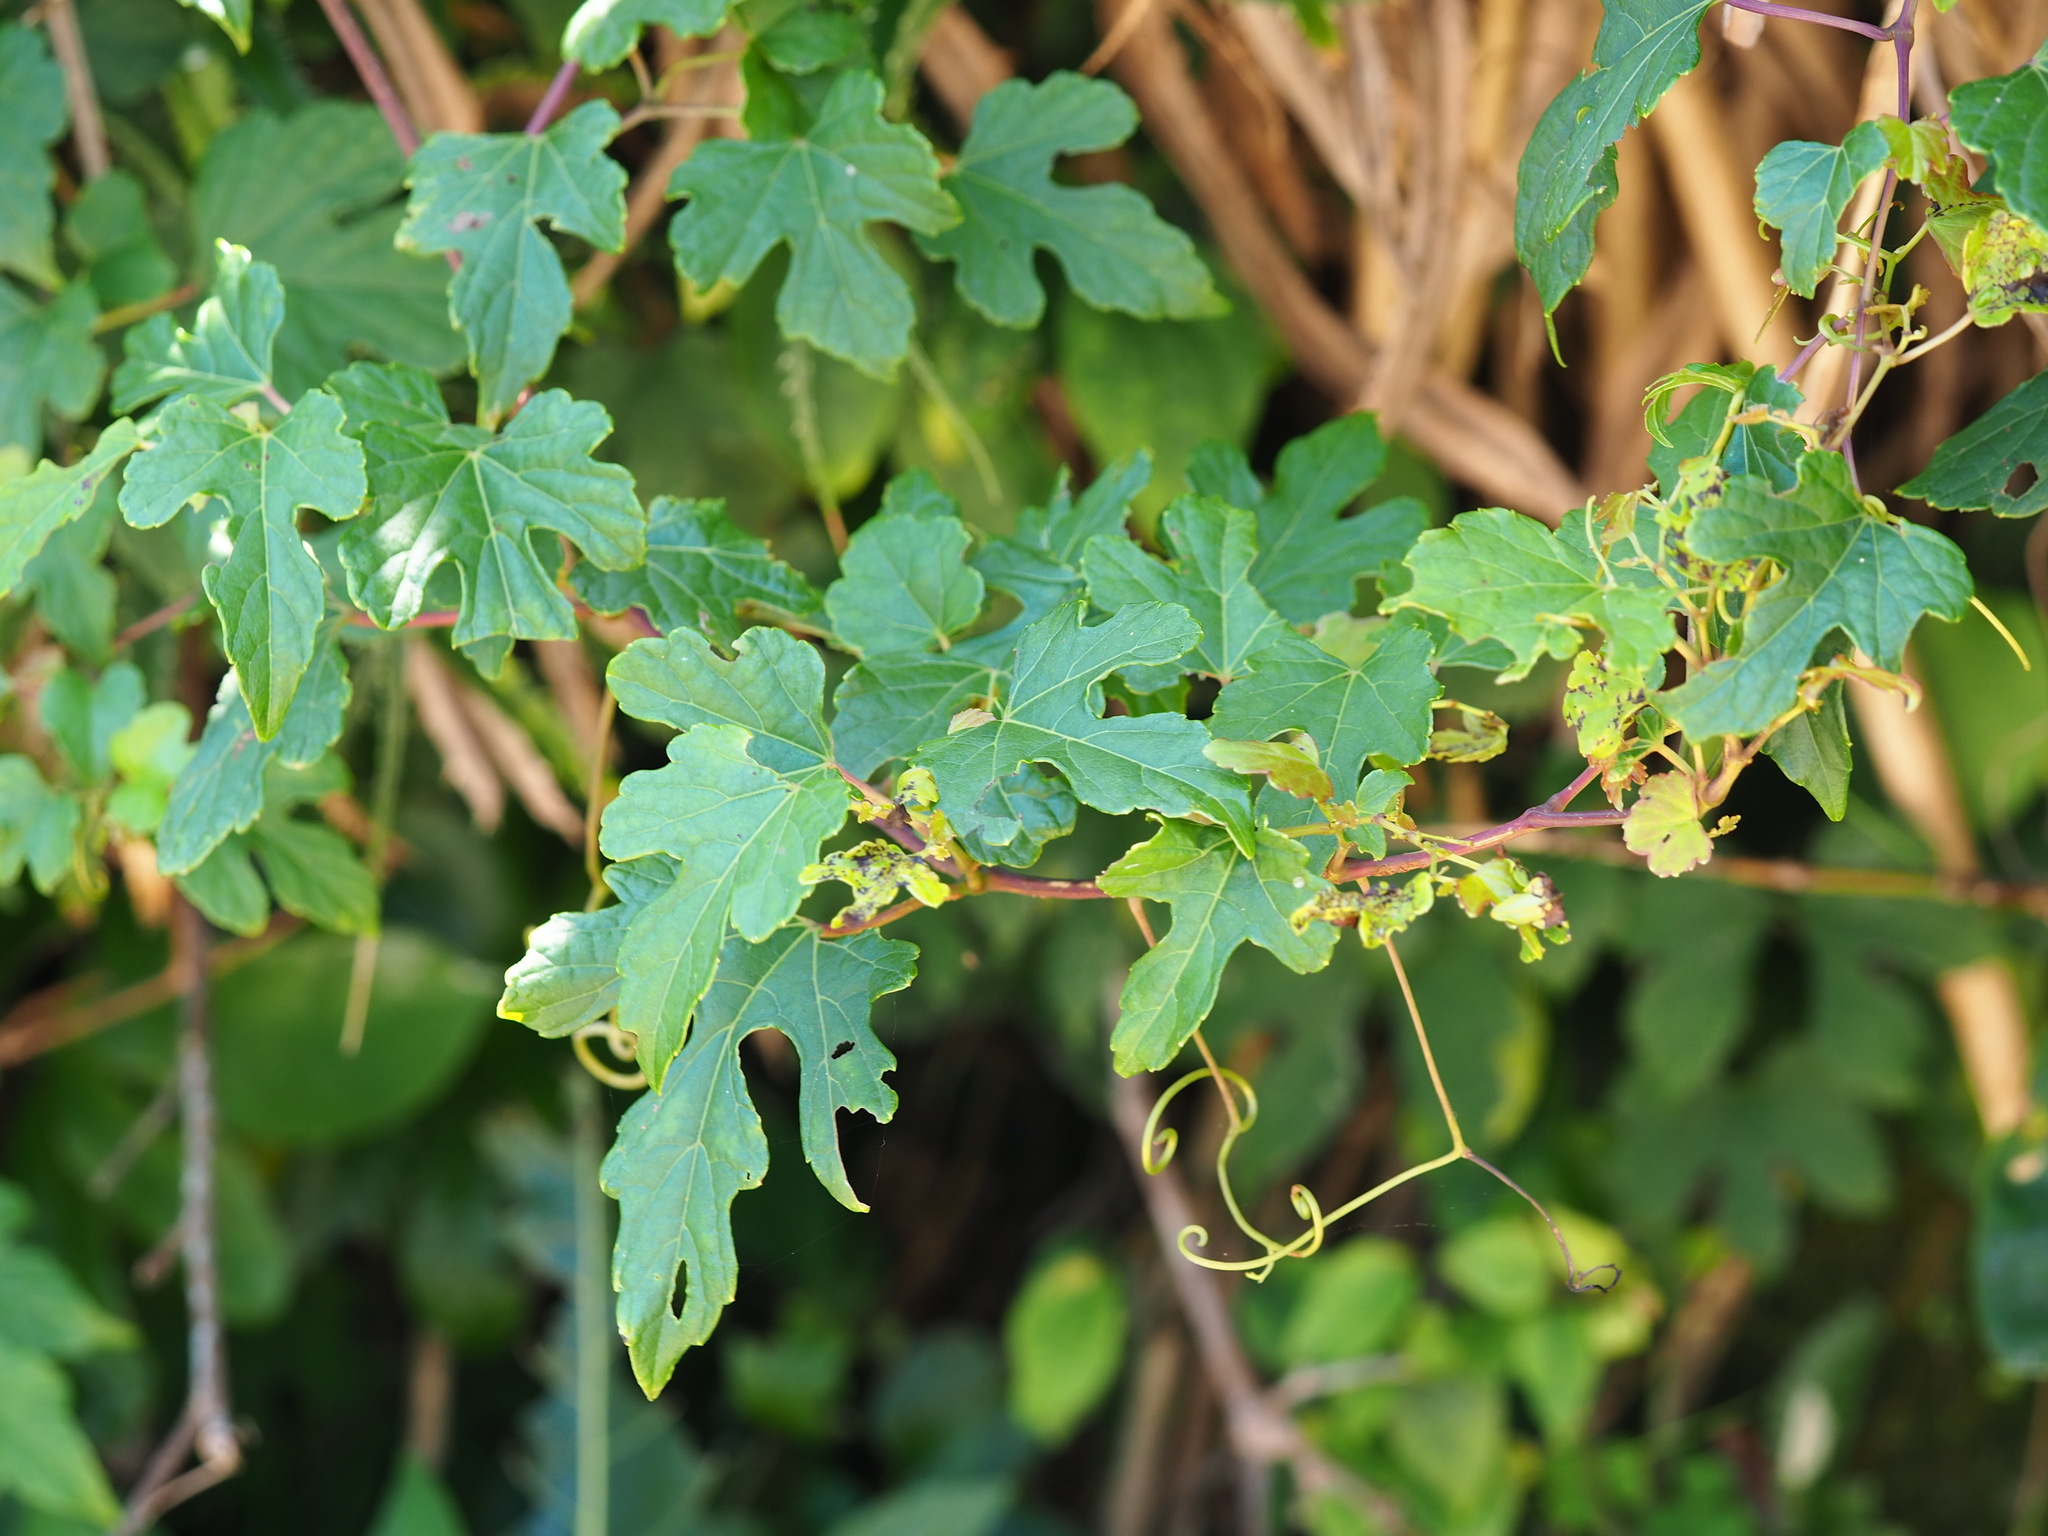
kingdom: Plantae
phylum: Tracheophyta
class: Magnoliopsida
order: Vitales
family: Vitaceae
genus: Ampelopsis
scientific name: Ampelopsis glandulosa
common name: Amur peppervine
